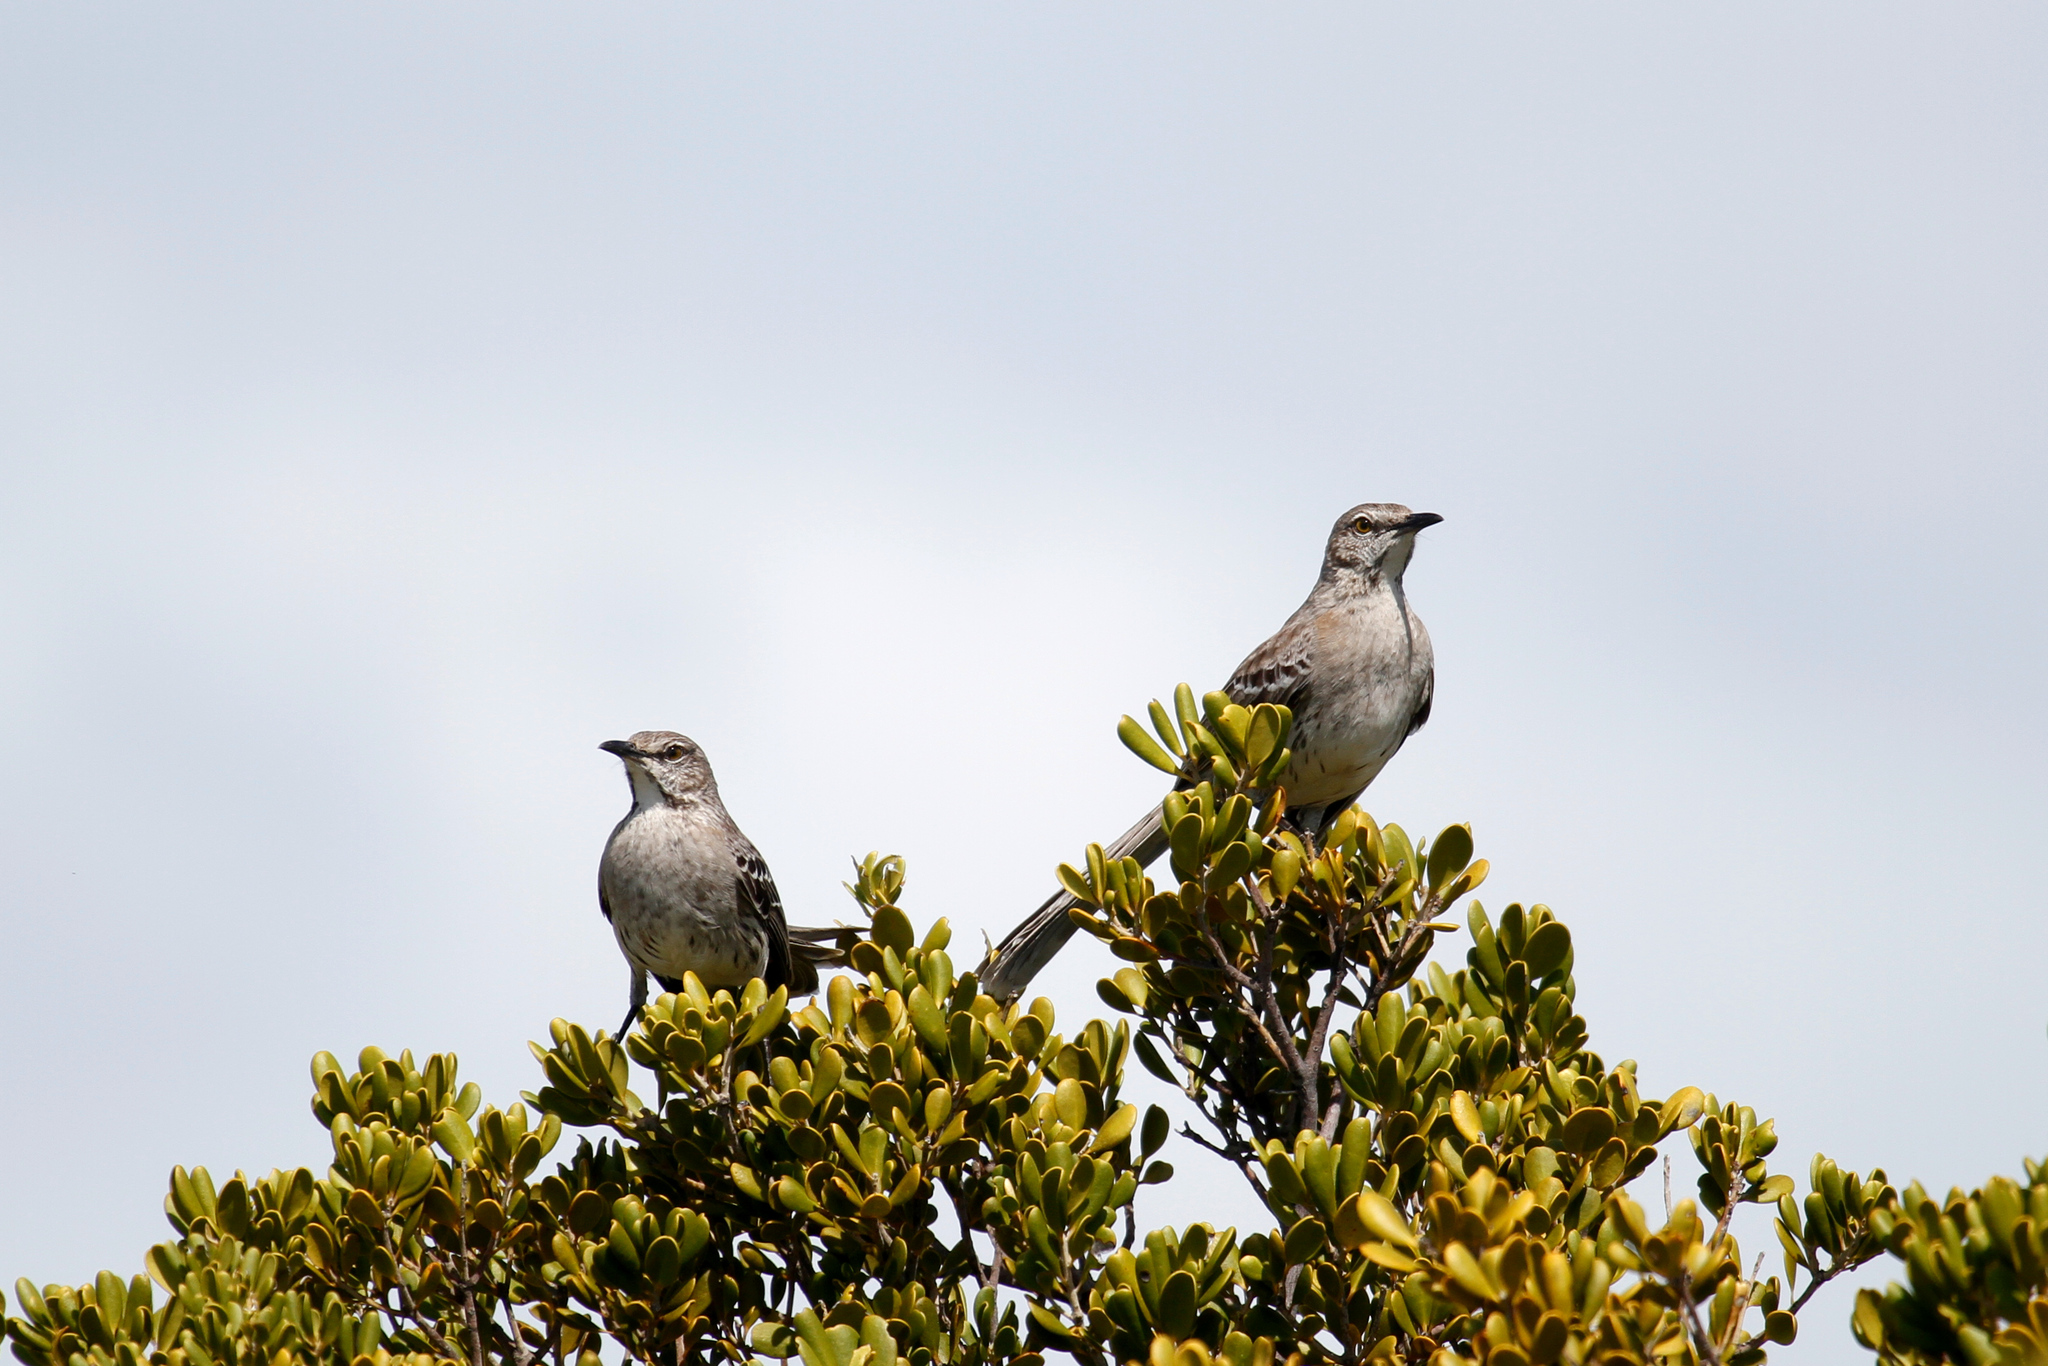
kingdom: Animalia
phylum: Chordata
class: Aves
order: Passeriformes
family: Mimidae
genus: Mimus
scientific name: Mimus gundlachii
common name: Bahama mockingbird
